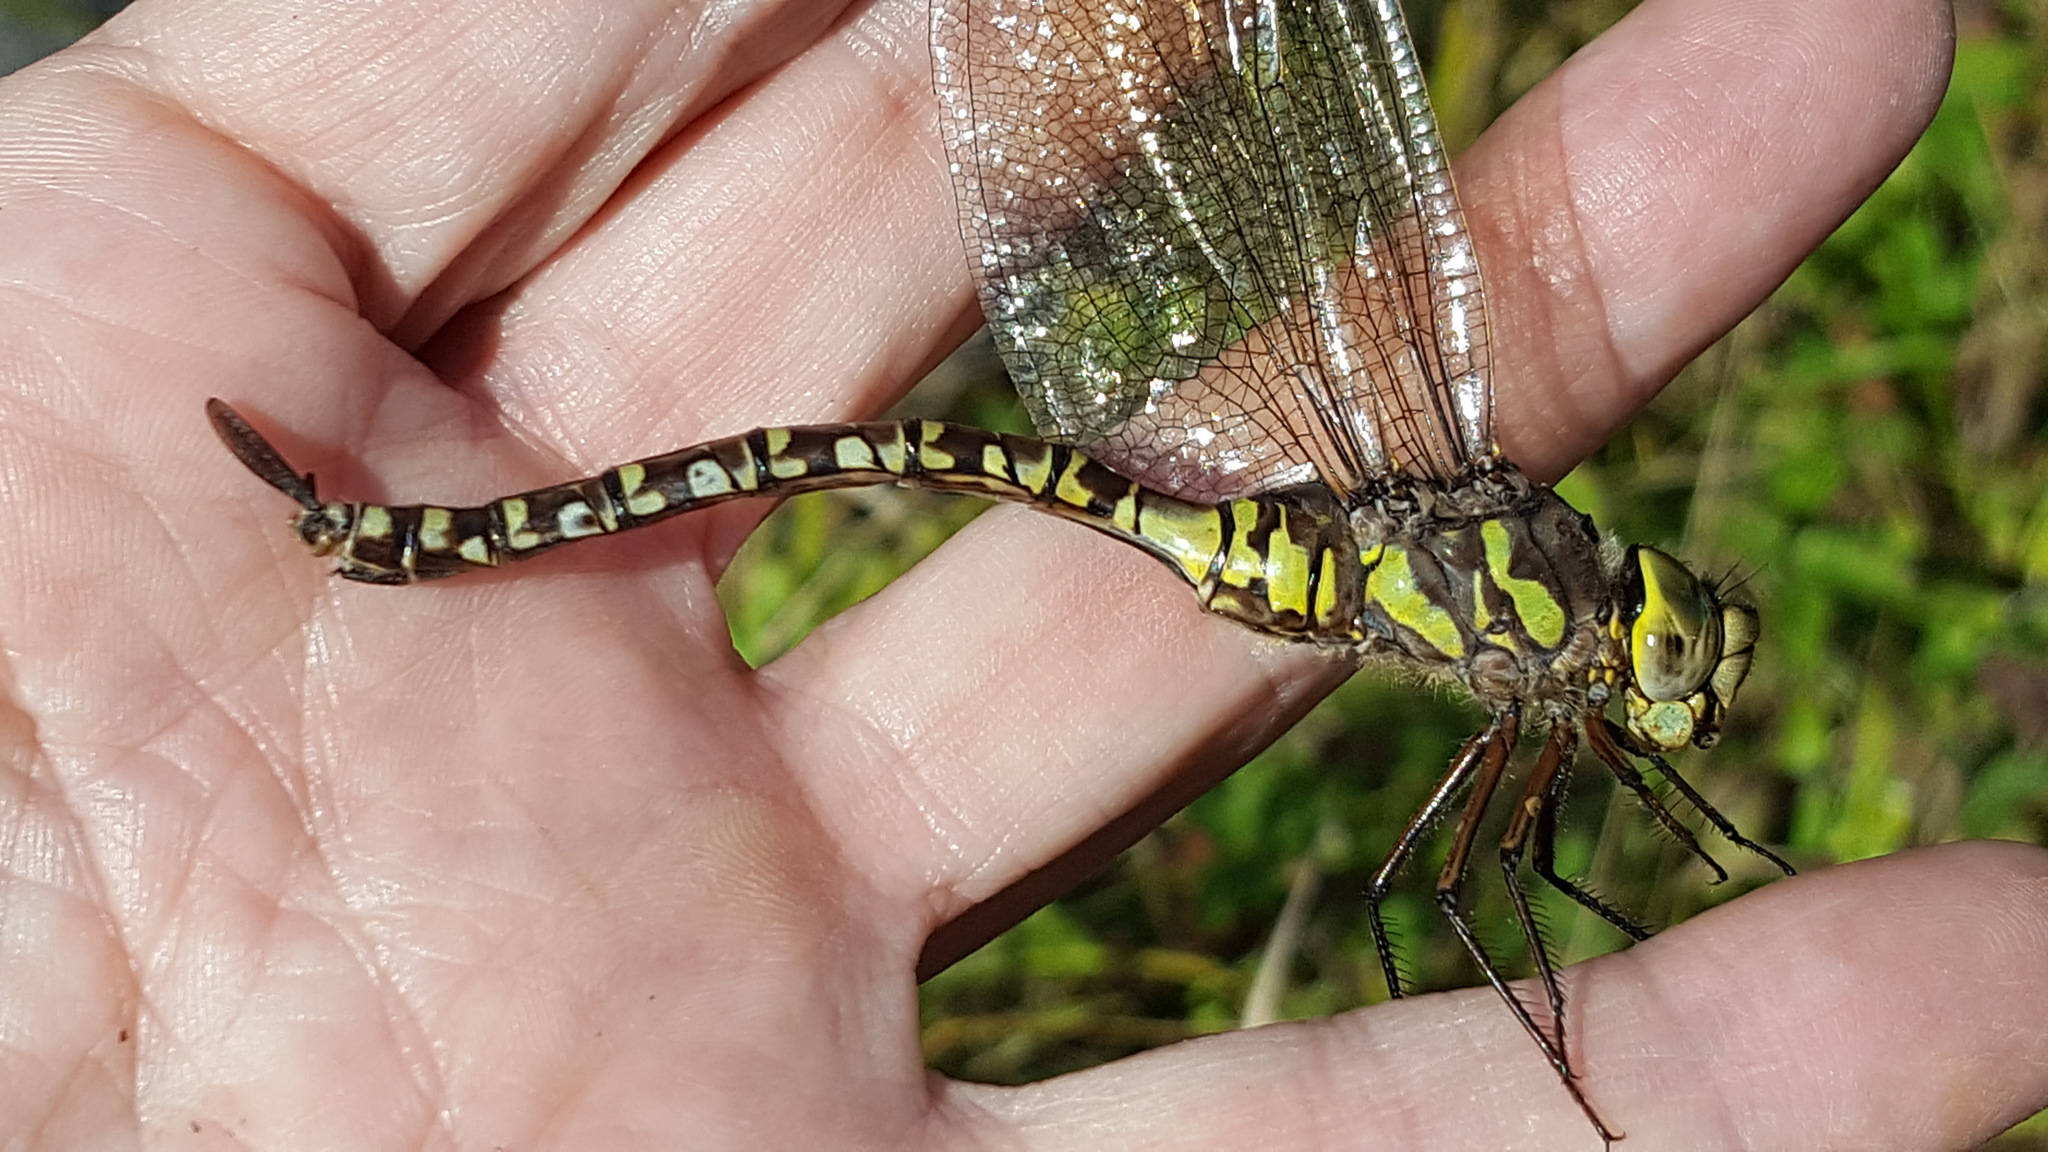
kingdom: Animalia
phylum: Arthropoda
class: Insecta
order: Odonata
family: Aeshnidae
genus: Aeshna
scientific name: Aeshna eremita
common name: Lake darner
